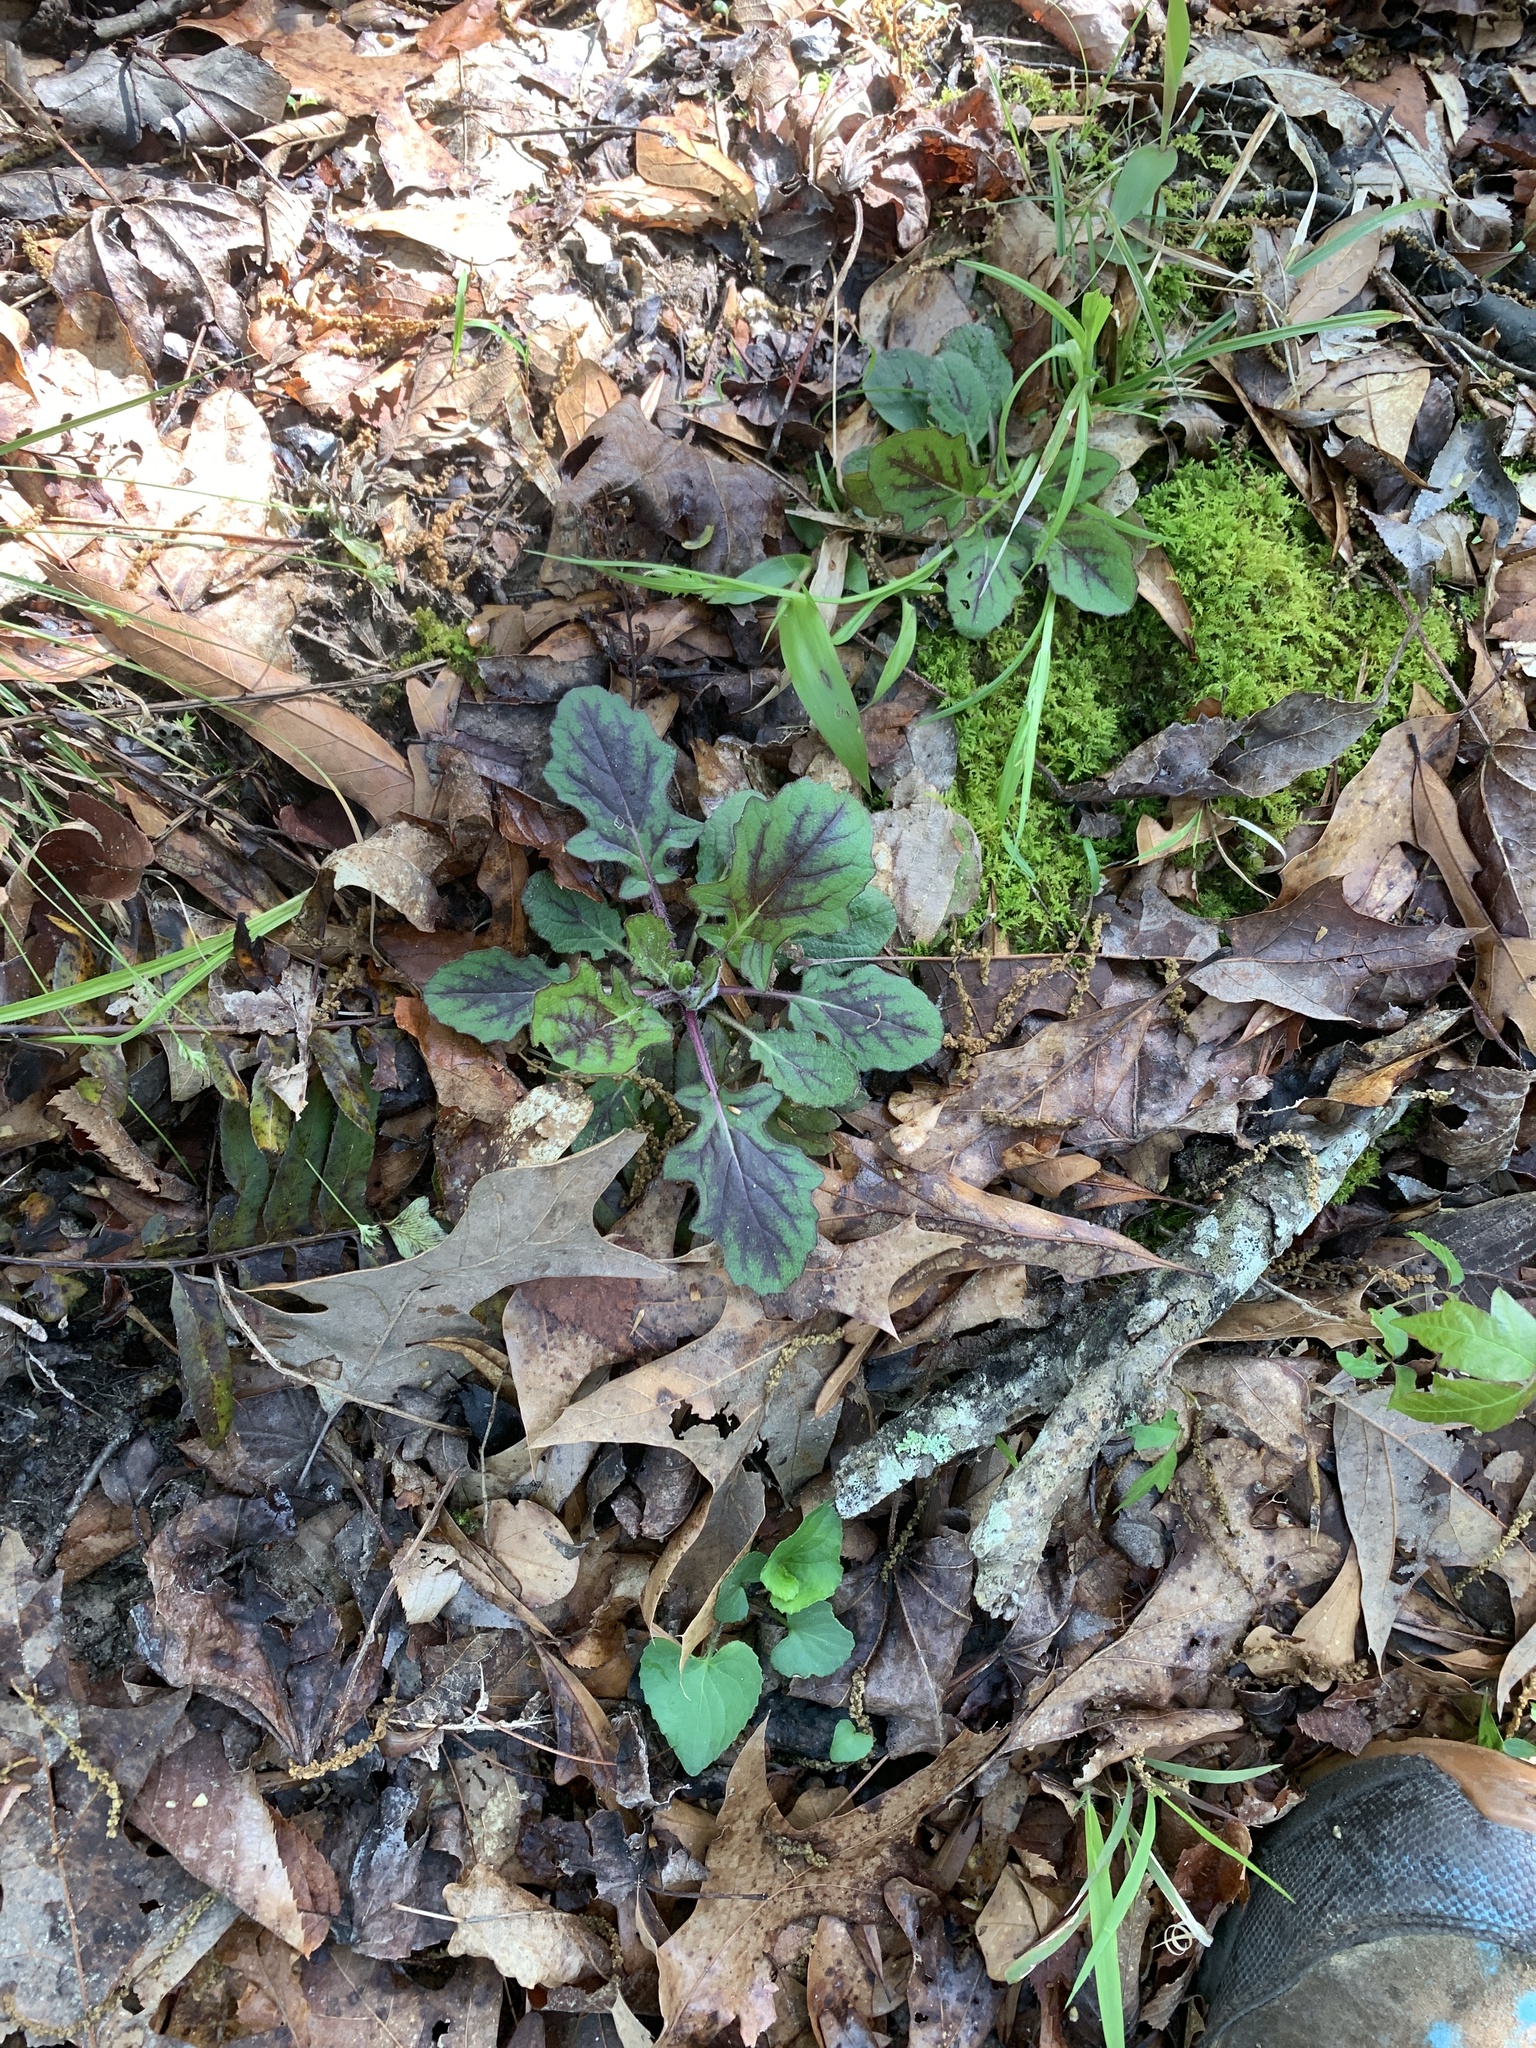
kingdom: Plantae
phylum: Tracheophyta
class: Magnoliopsida
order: Lamiales
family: Lamiaceae
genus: Salvia
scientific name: Salvia lyrata
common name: Cancerweed
